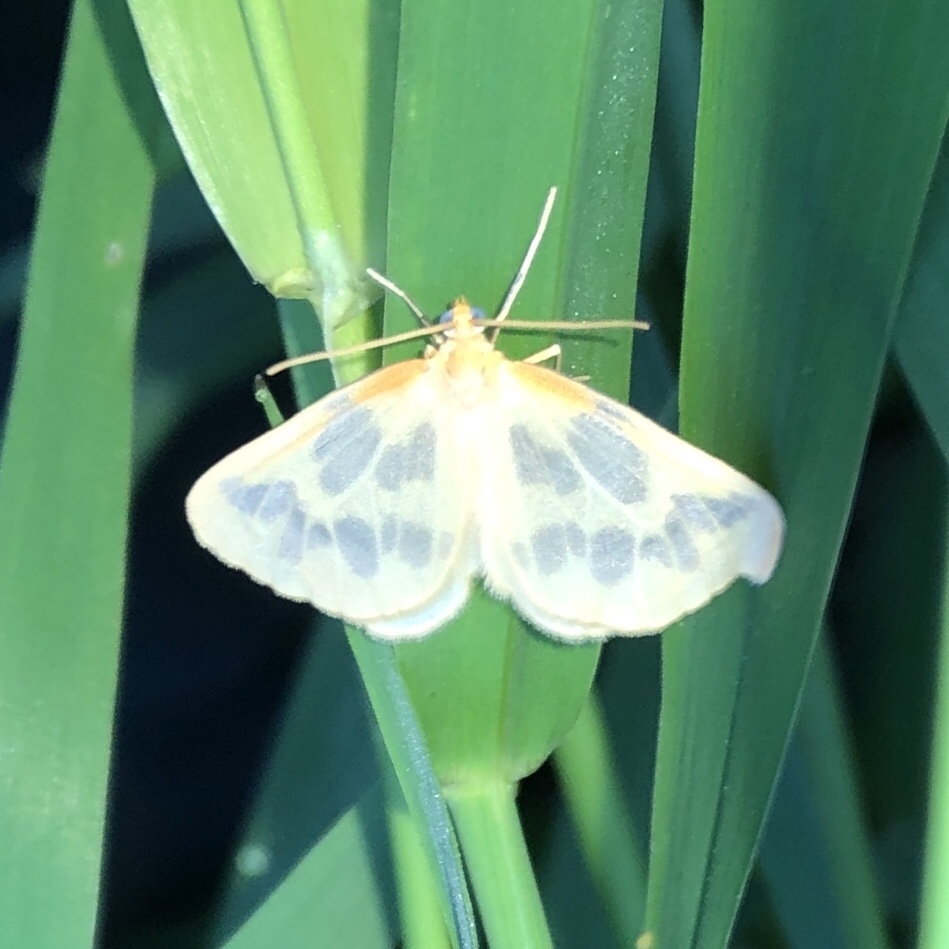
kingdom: Animalia
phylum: Arthropoda
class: Insecta
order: Lepidoptera
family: Geometridae
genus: Eubaphe
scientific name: Eubaphe mendica
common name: Beggar
